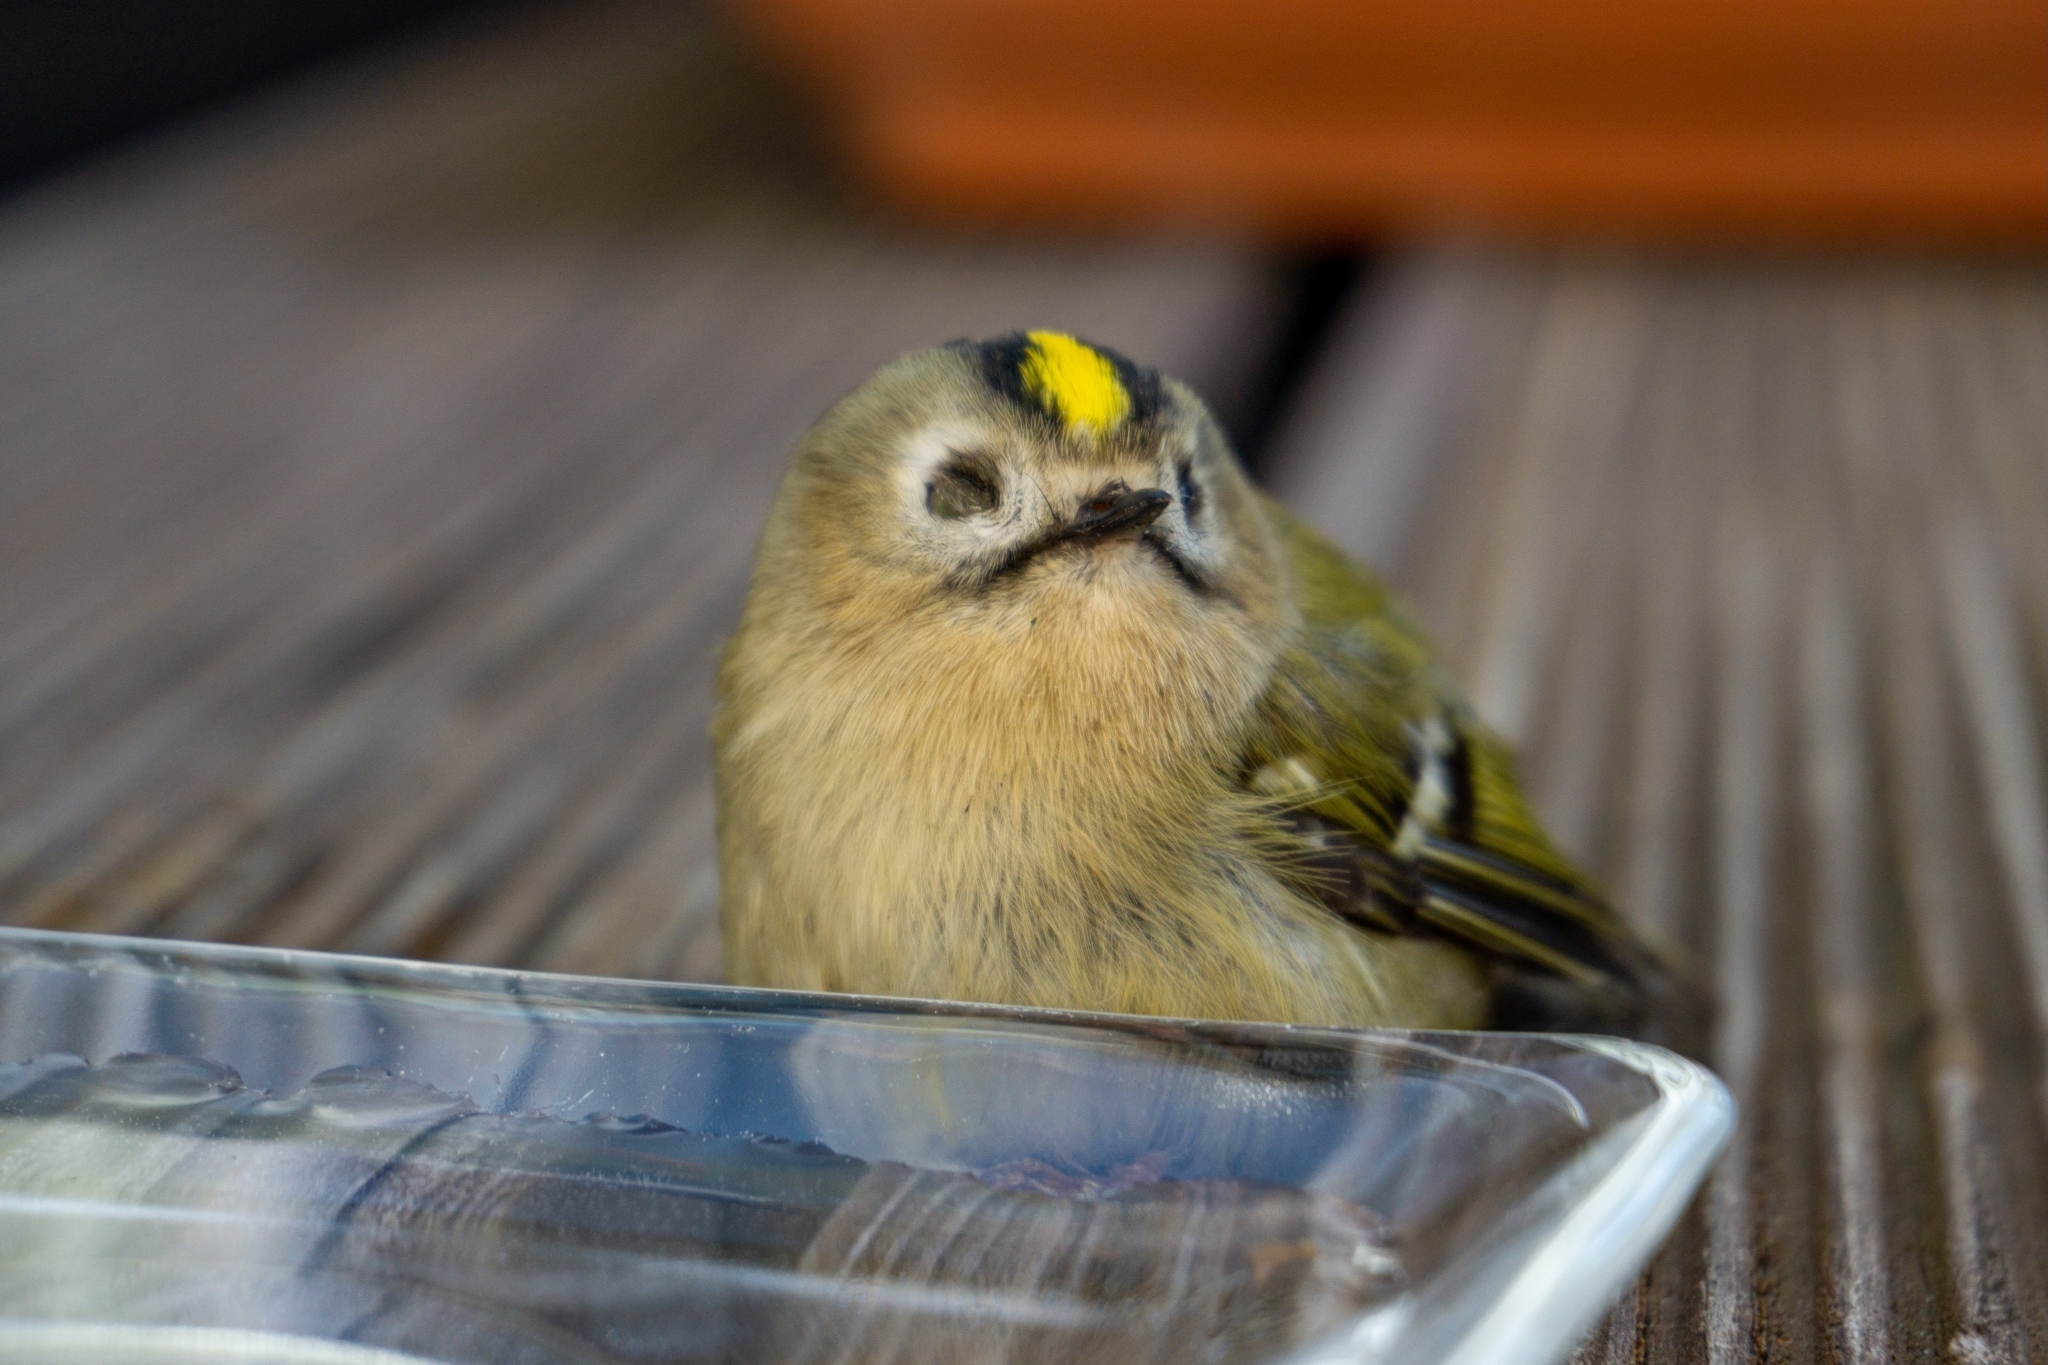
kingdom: Animalia
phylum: Chordata
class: Aves
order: Passeriformes
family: Regulidae
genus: Regulus
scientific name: Regulus regulus
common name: Goldcrest
